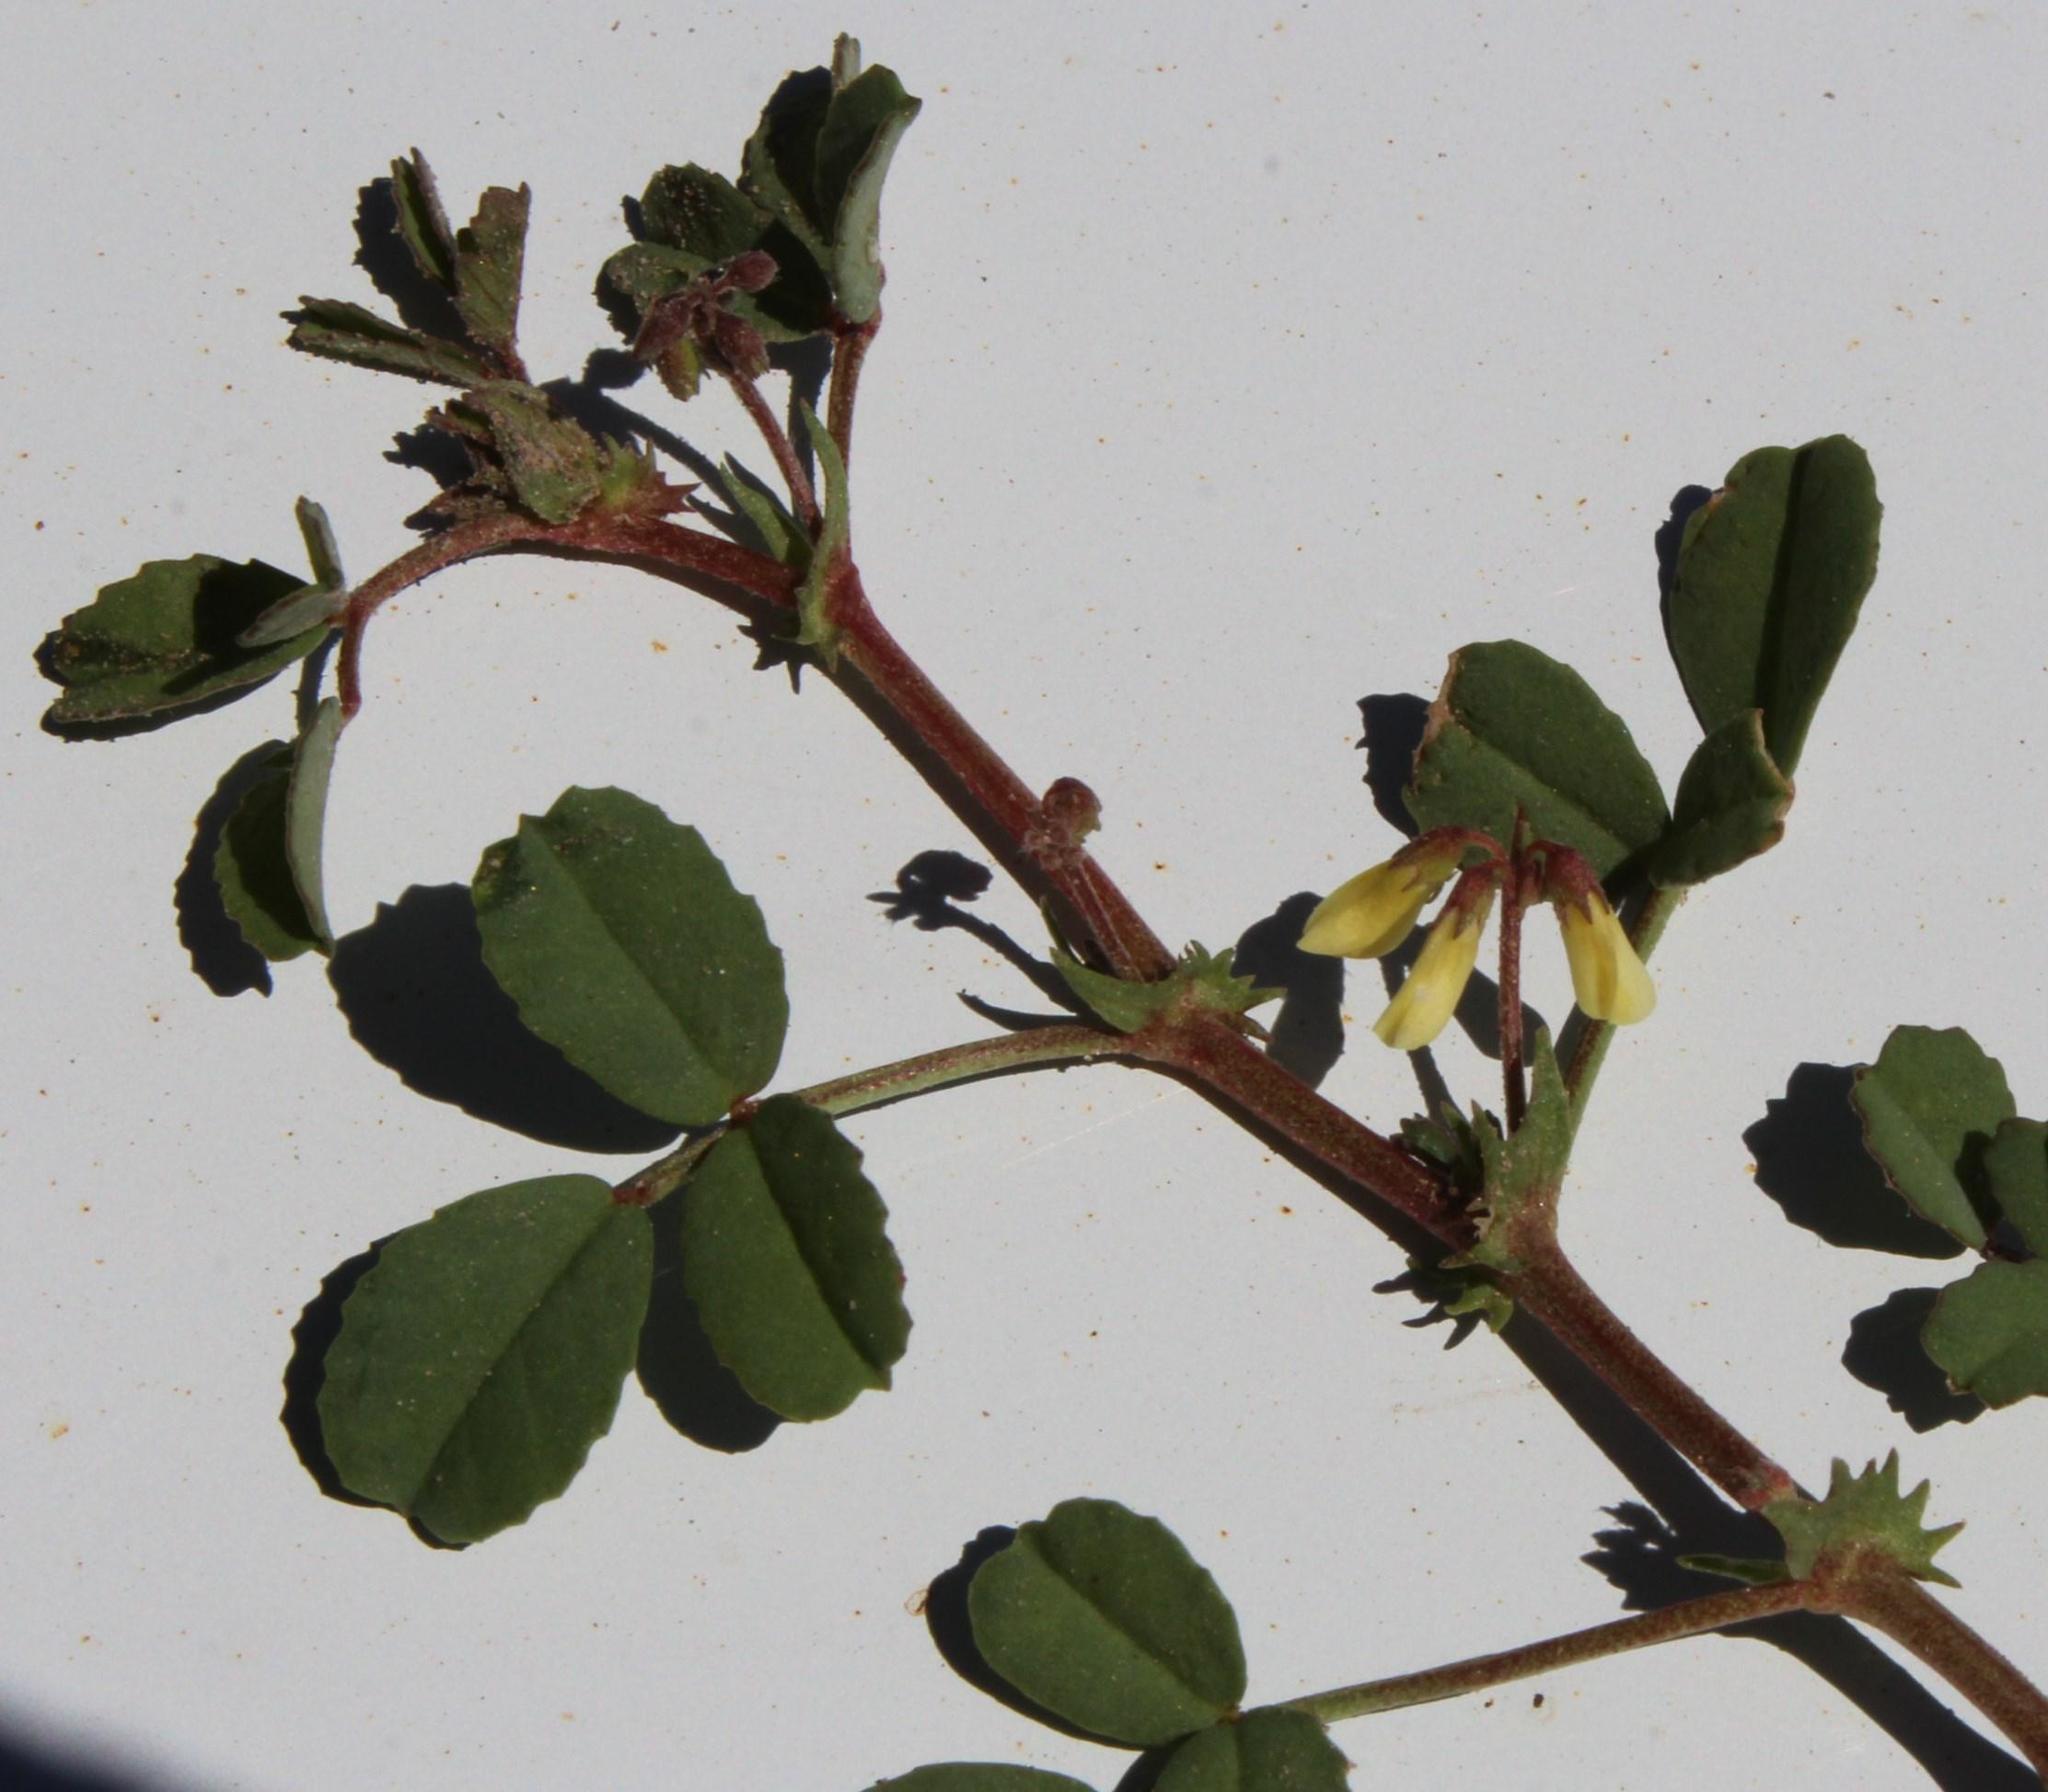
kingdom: Plantae
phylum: Tracheophyta
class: Magnoliopsida
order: Fabales
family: Fabaceae
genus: Medicago
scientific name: Medicago polymorpha
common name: Burclover
